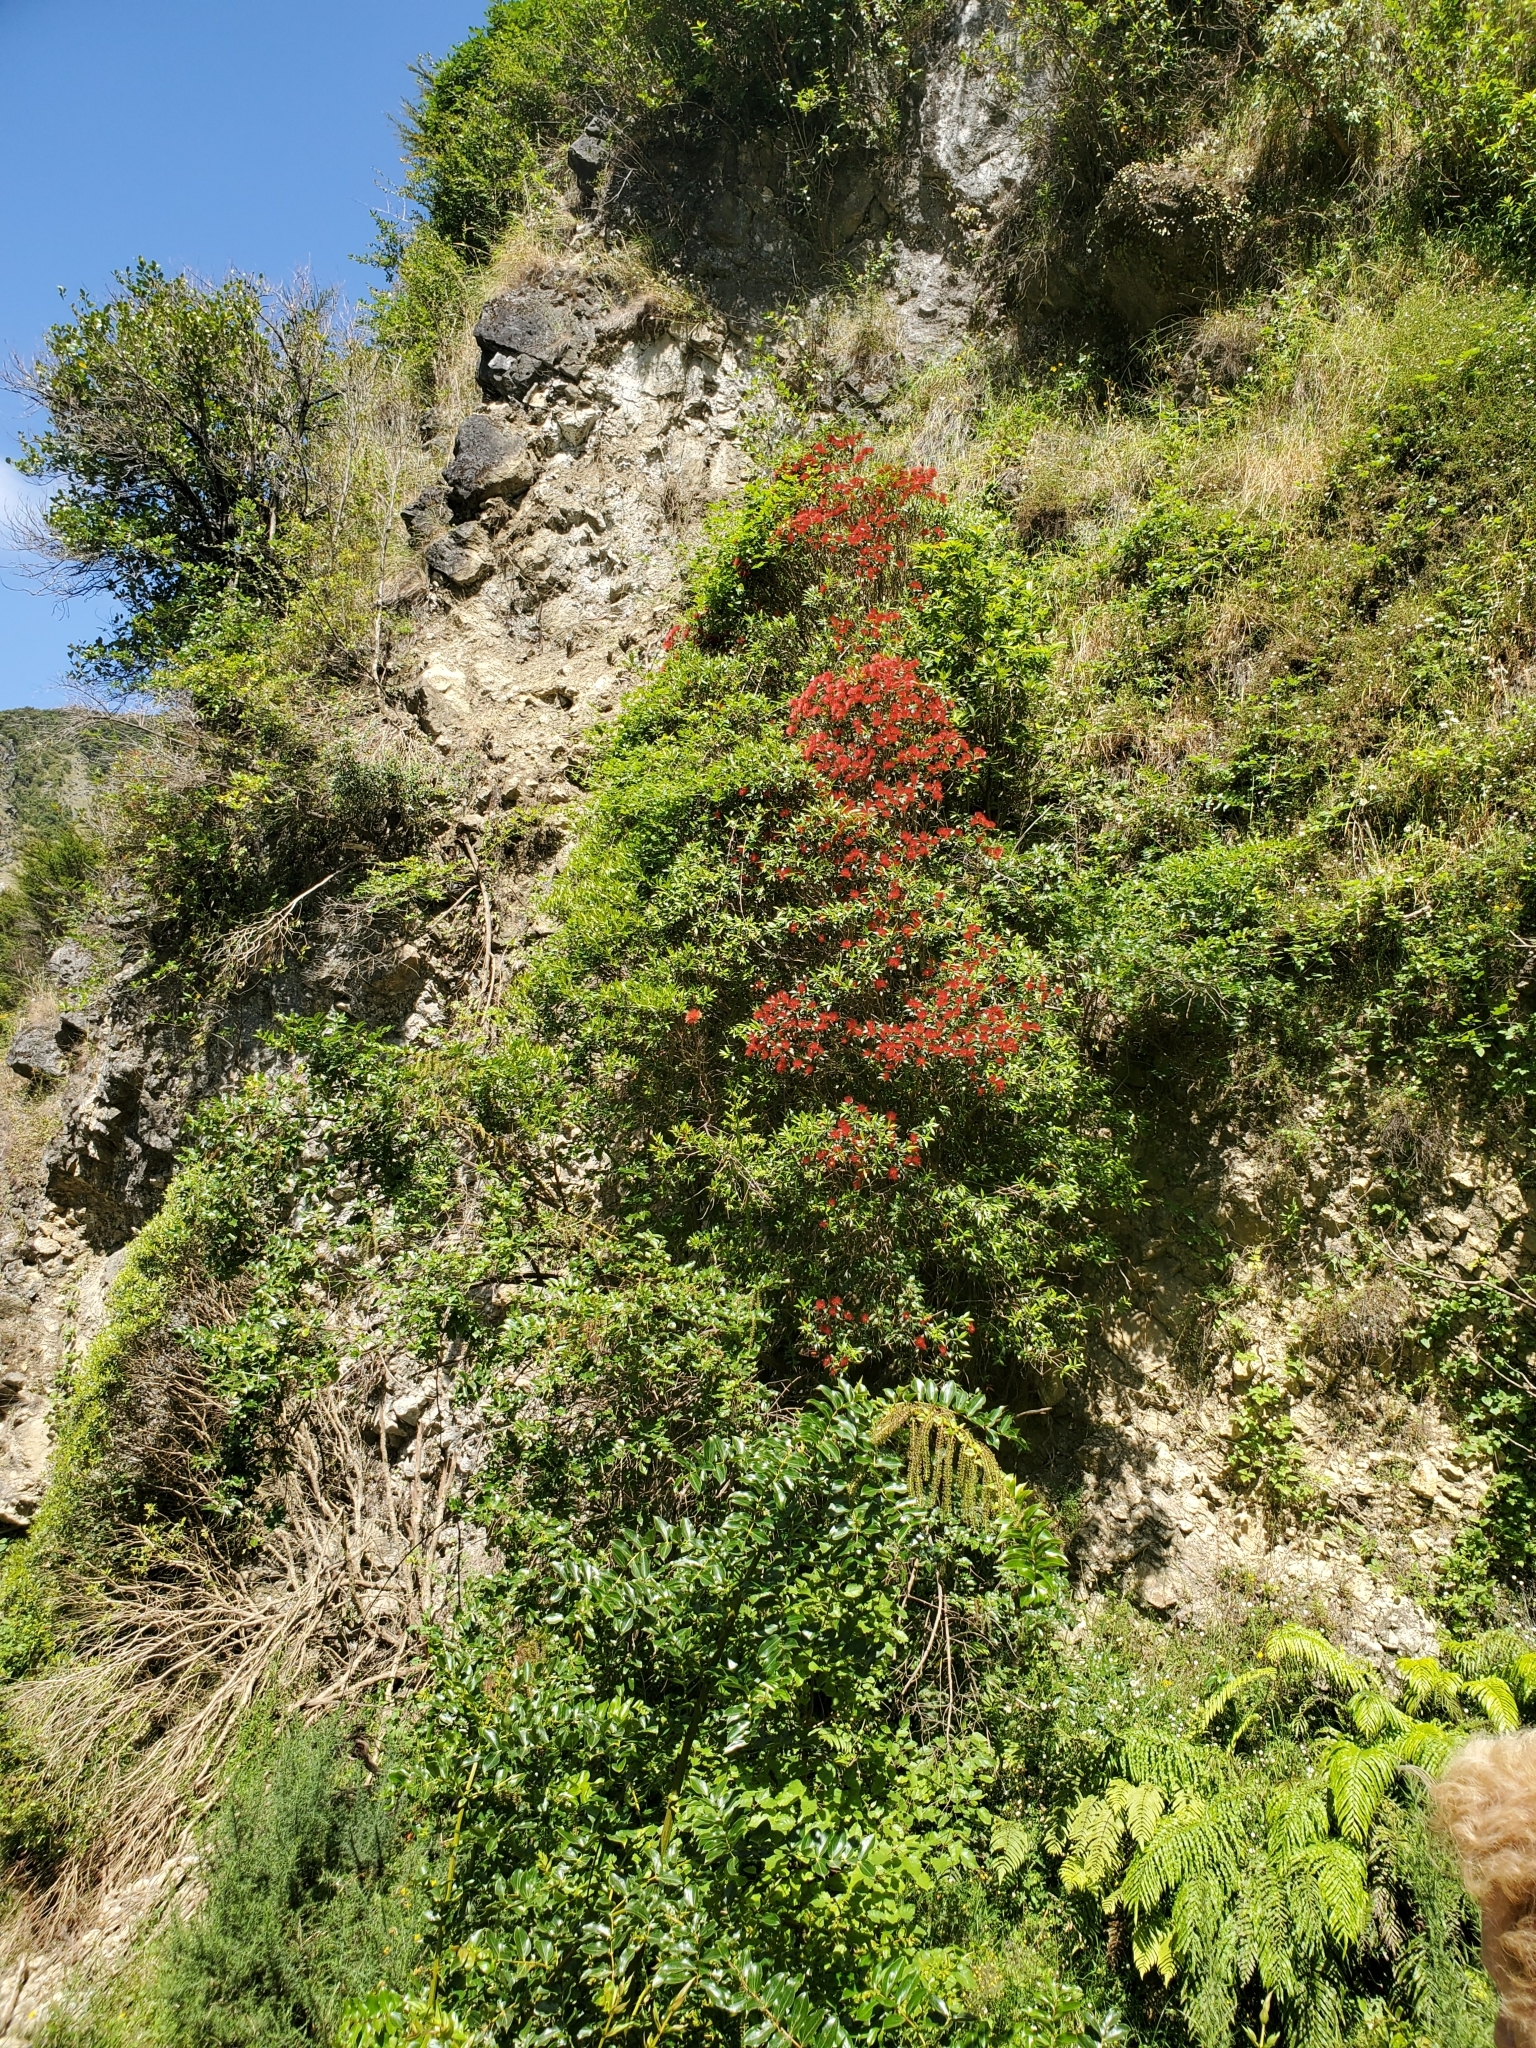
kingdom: Plantae
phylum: Tracheophyta
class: Magnoliopsida
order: Myrtales
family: Myrtaceae
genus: Metrosideros
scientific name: Metrosideros umbellata
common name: Southern rata
